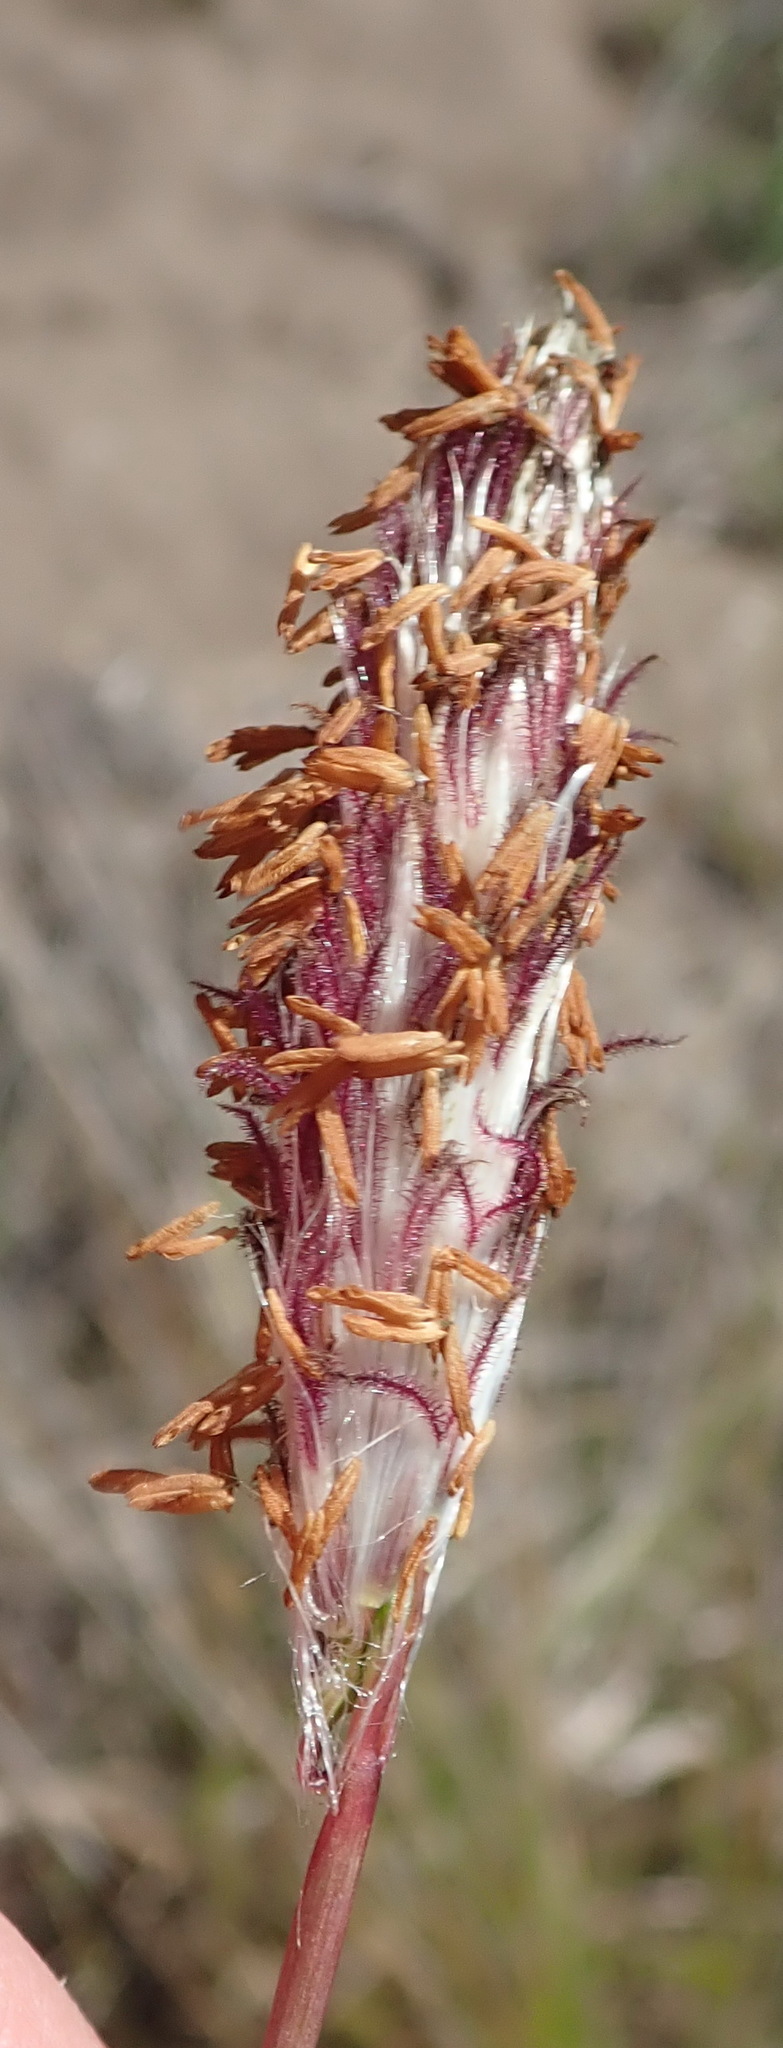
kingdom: Plantae
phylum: Tracheophyta
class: Liliopsida
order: Poales
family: Poaceae
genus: Imperata
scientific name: Imperata cylindrica
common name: Cogongrass
